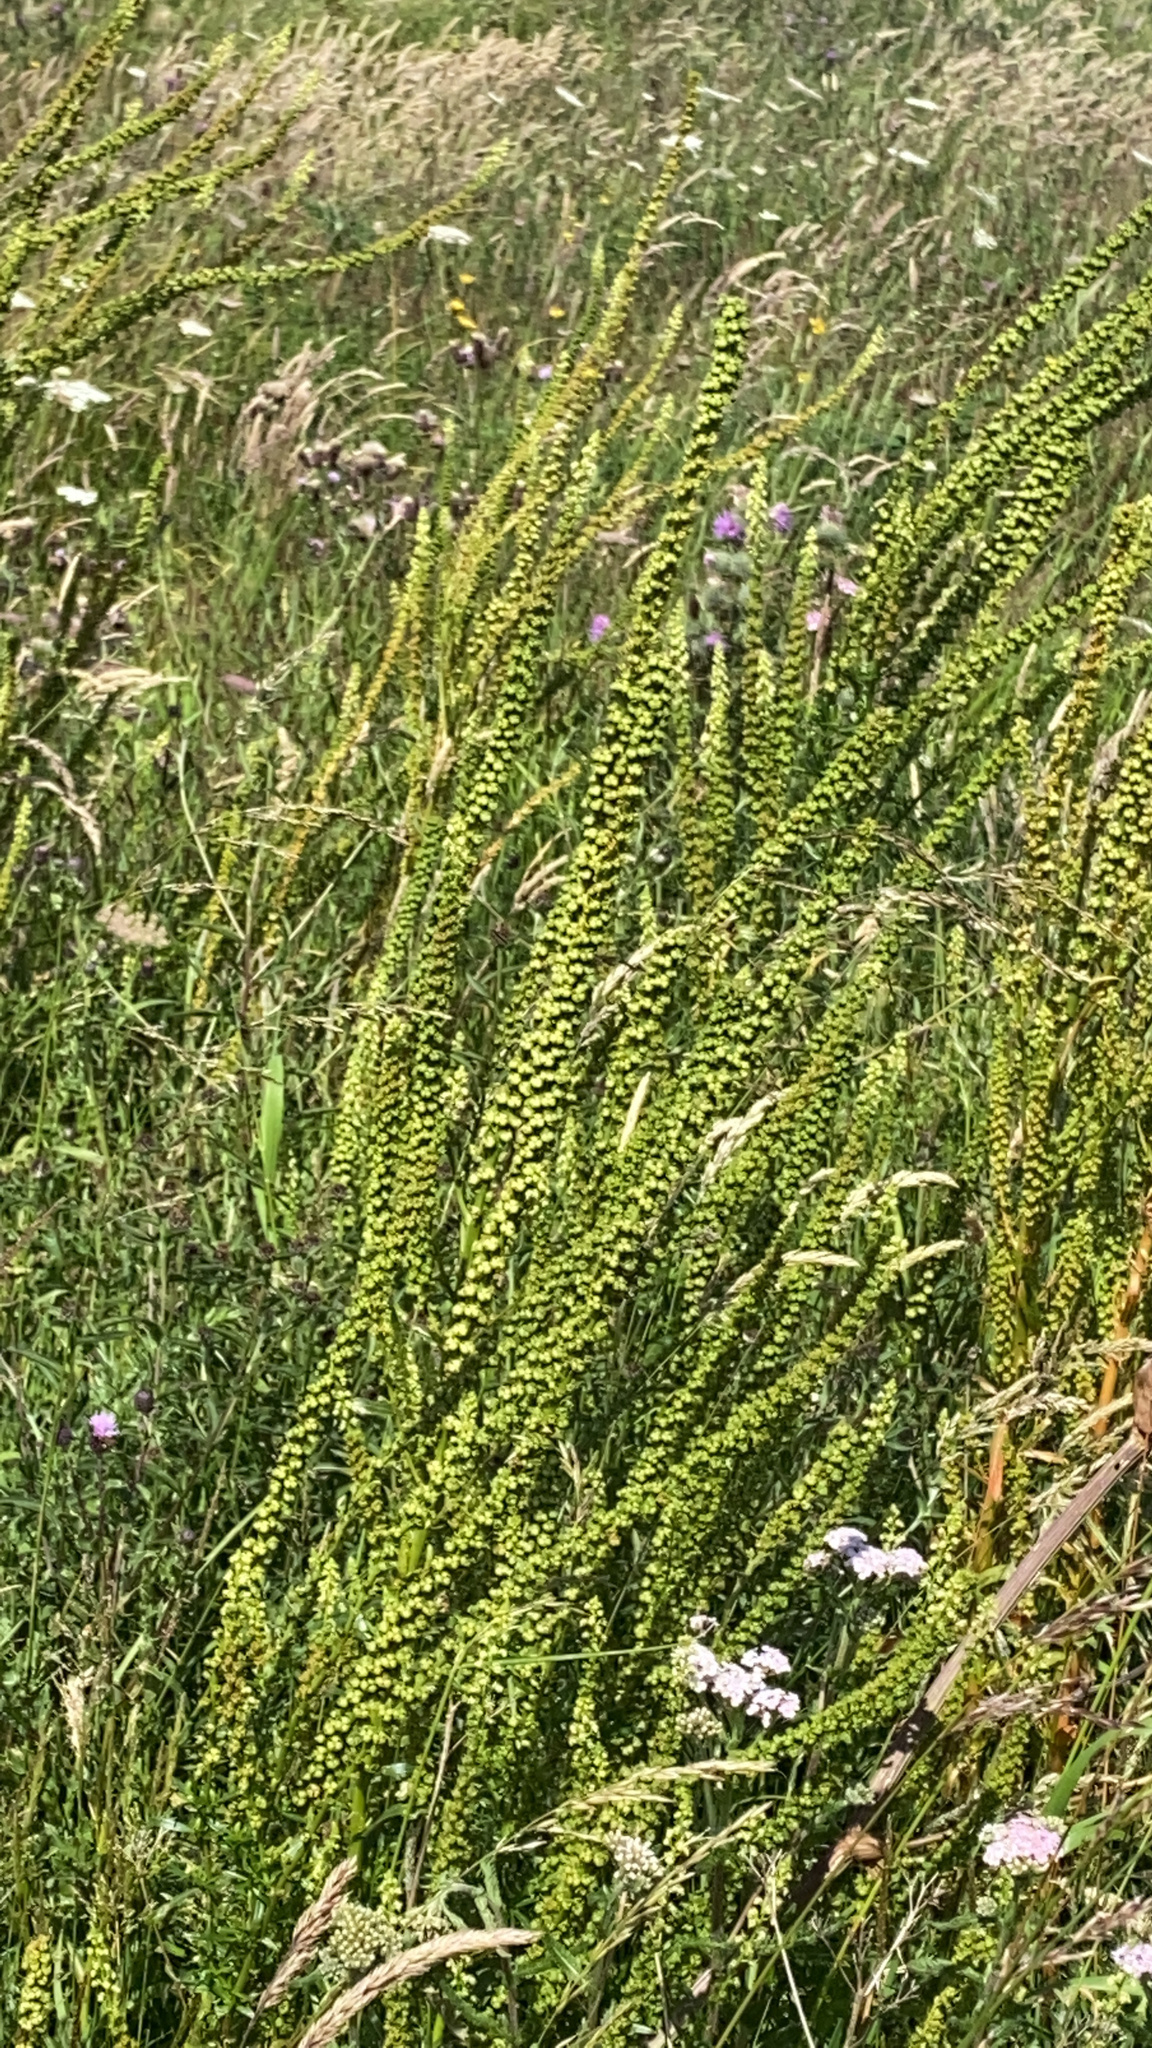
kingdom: Plantae
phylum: Tracheophyta
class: Magnoliopsida
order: Brassicales
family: Resedaceae
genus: Reseda
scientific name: Reseda luteola
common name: Weld
